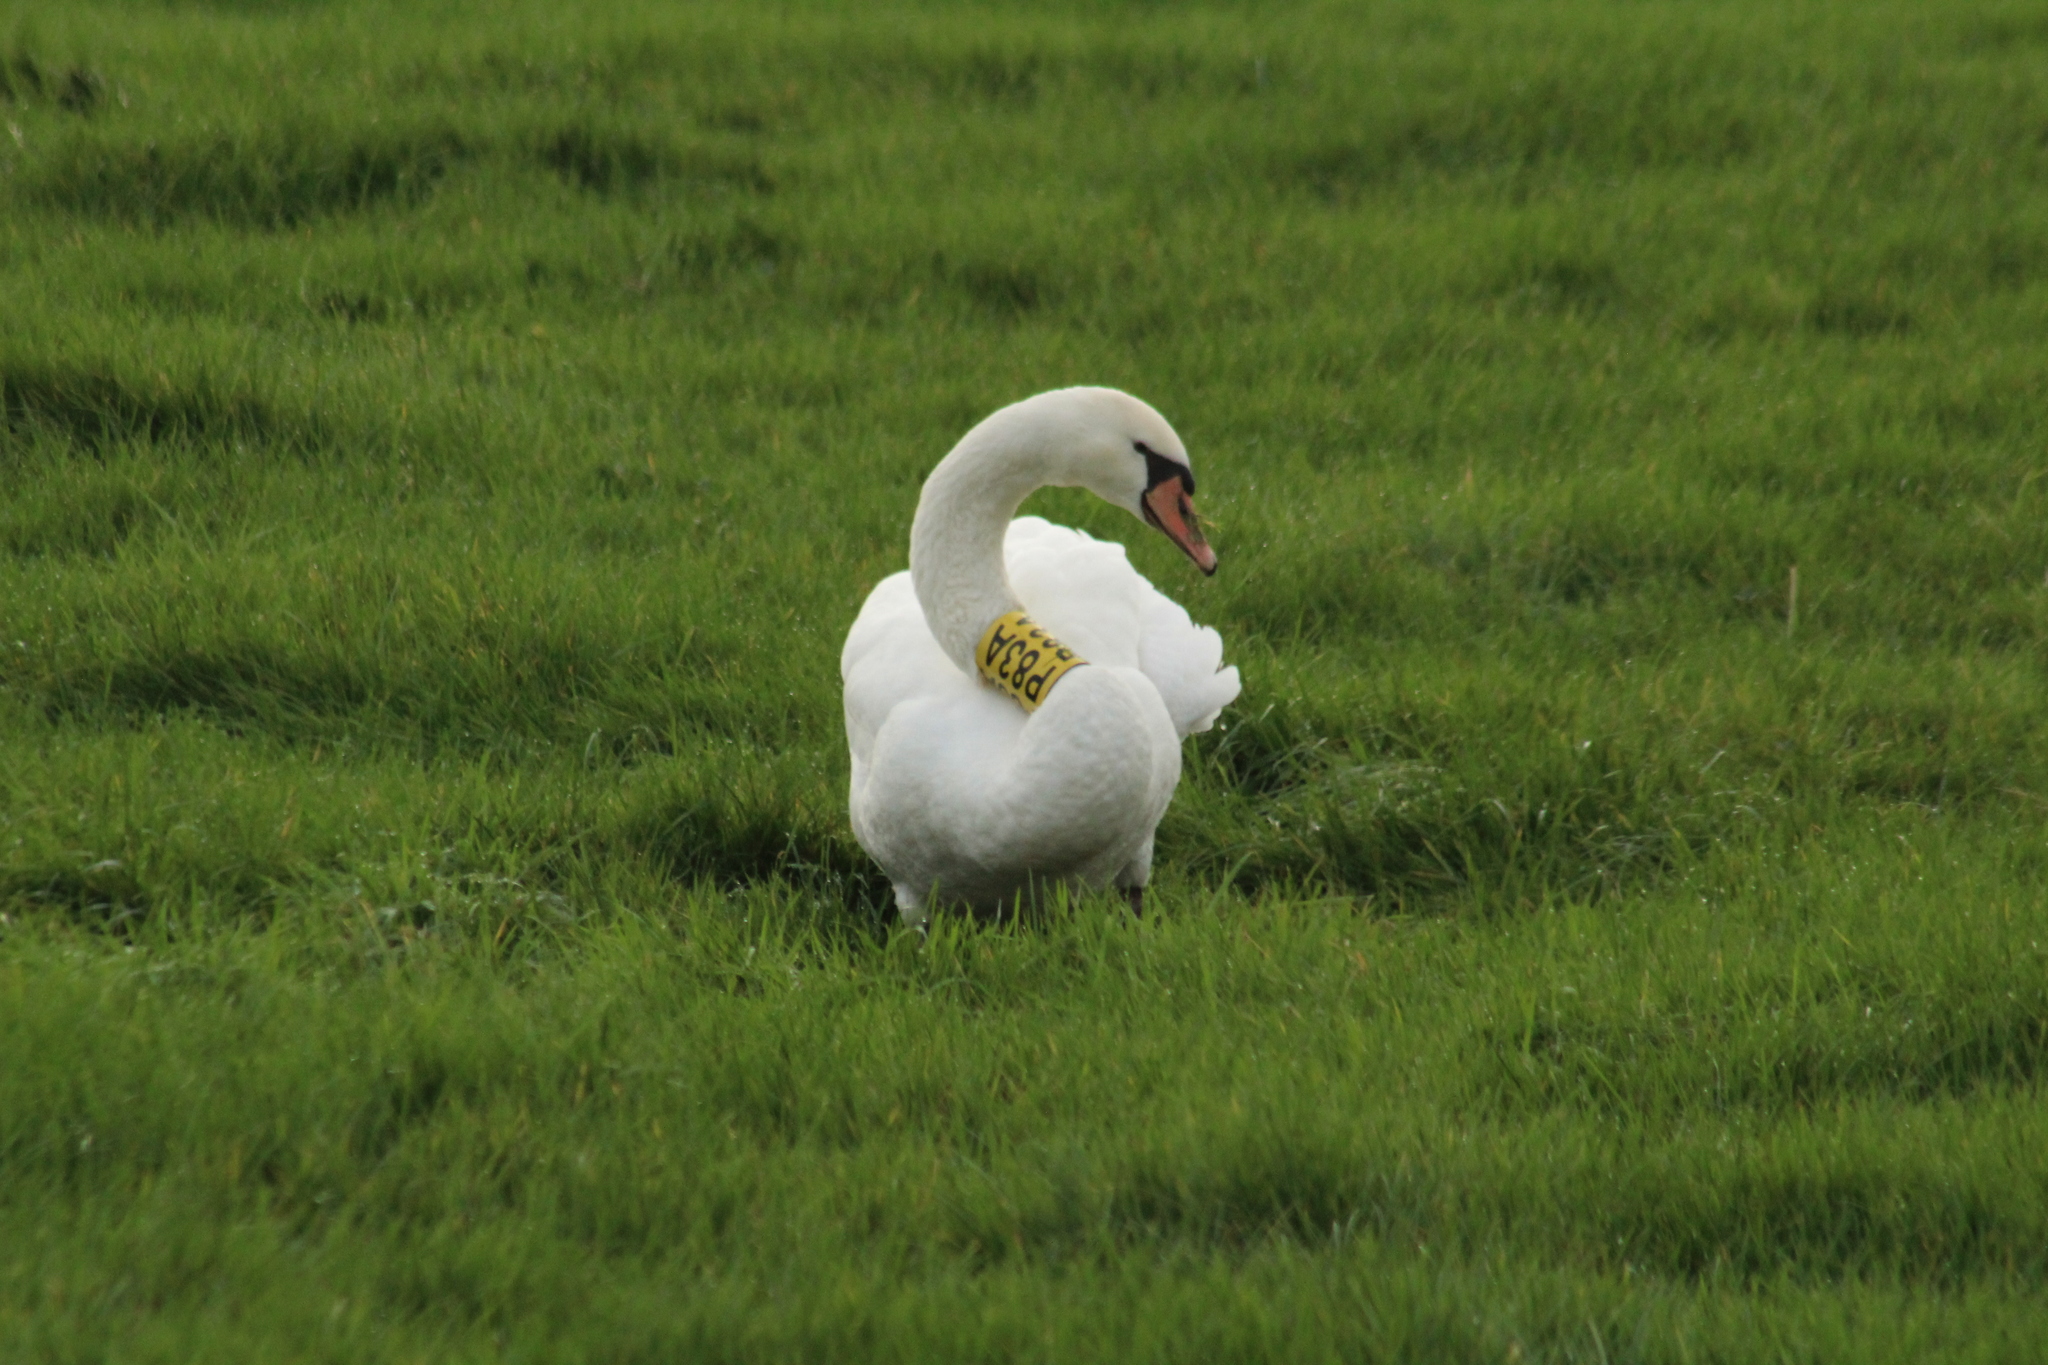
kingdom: Animalia
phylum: Chordata
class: Aves
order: Anseriformes
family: Anatidae
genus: Cygnus
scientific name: Cygnus olor
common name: Mute swan
